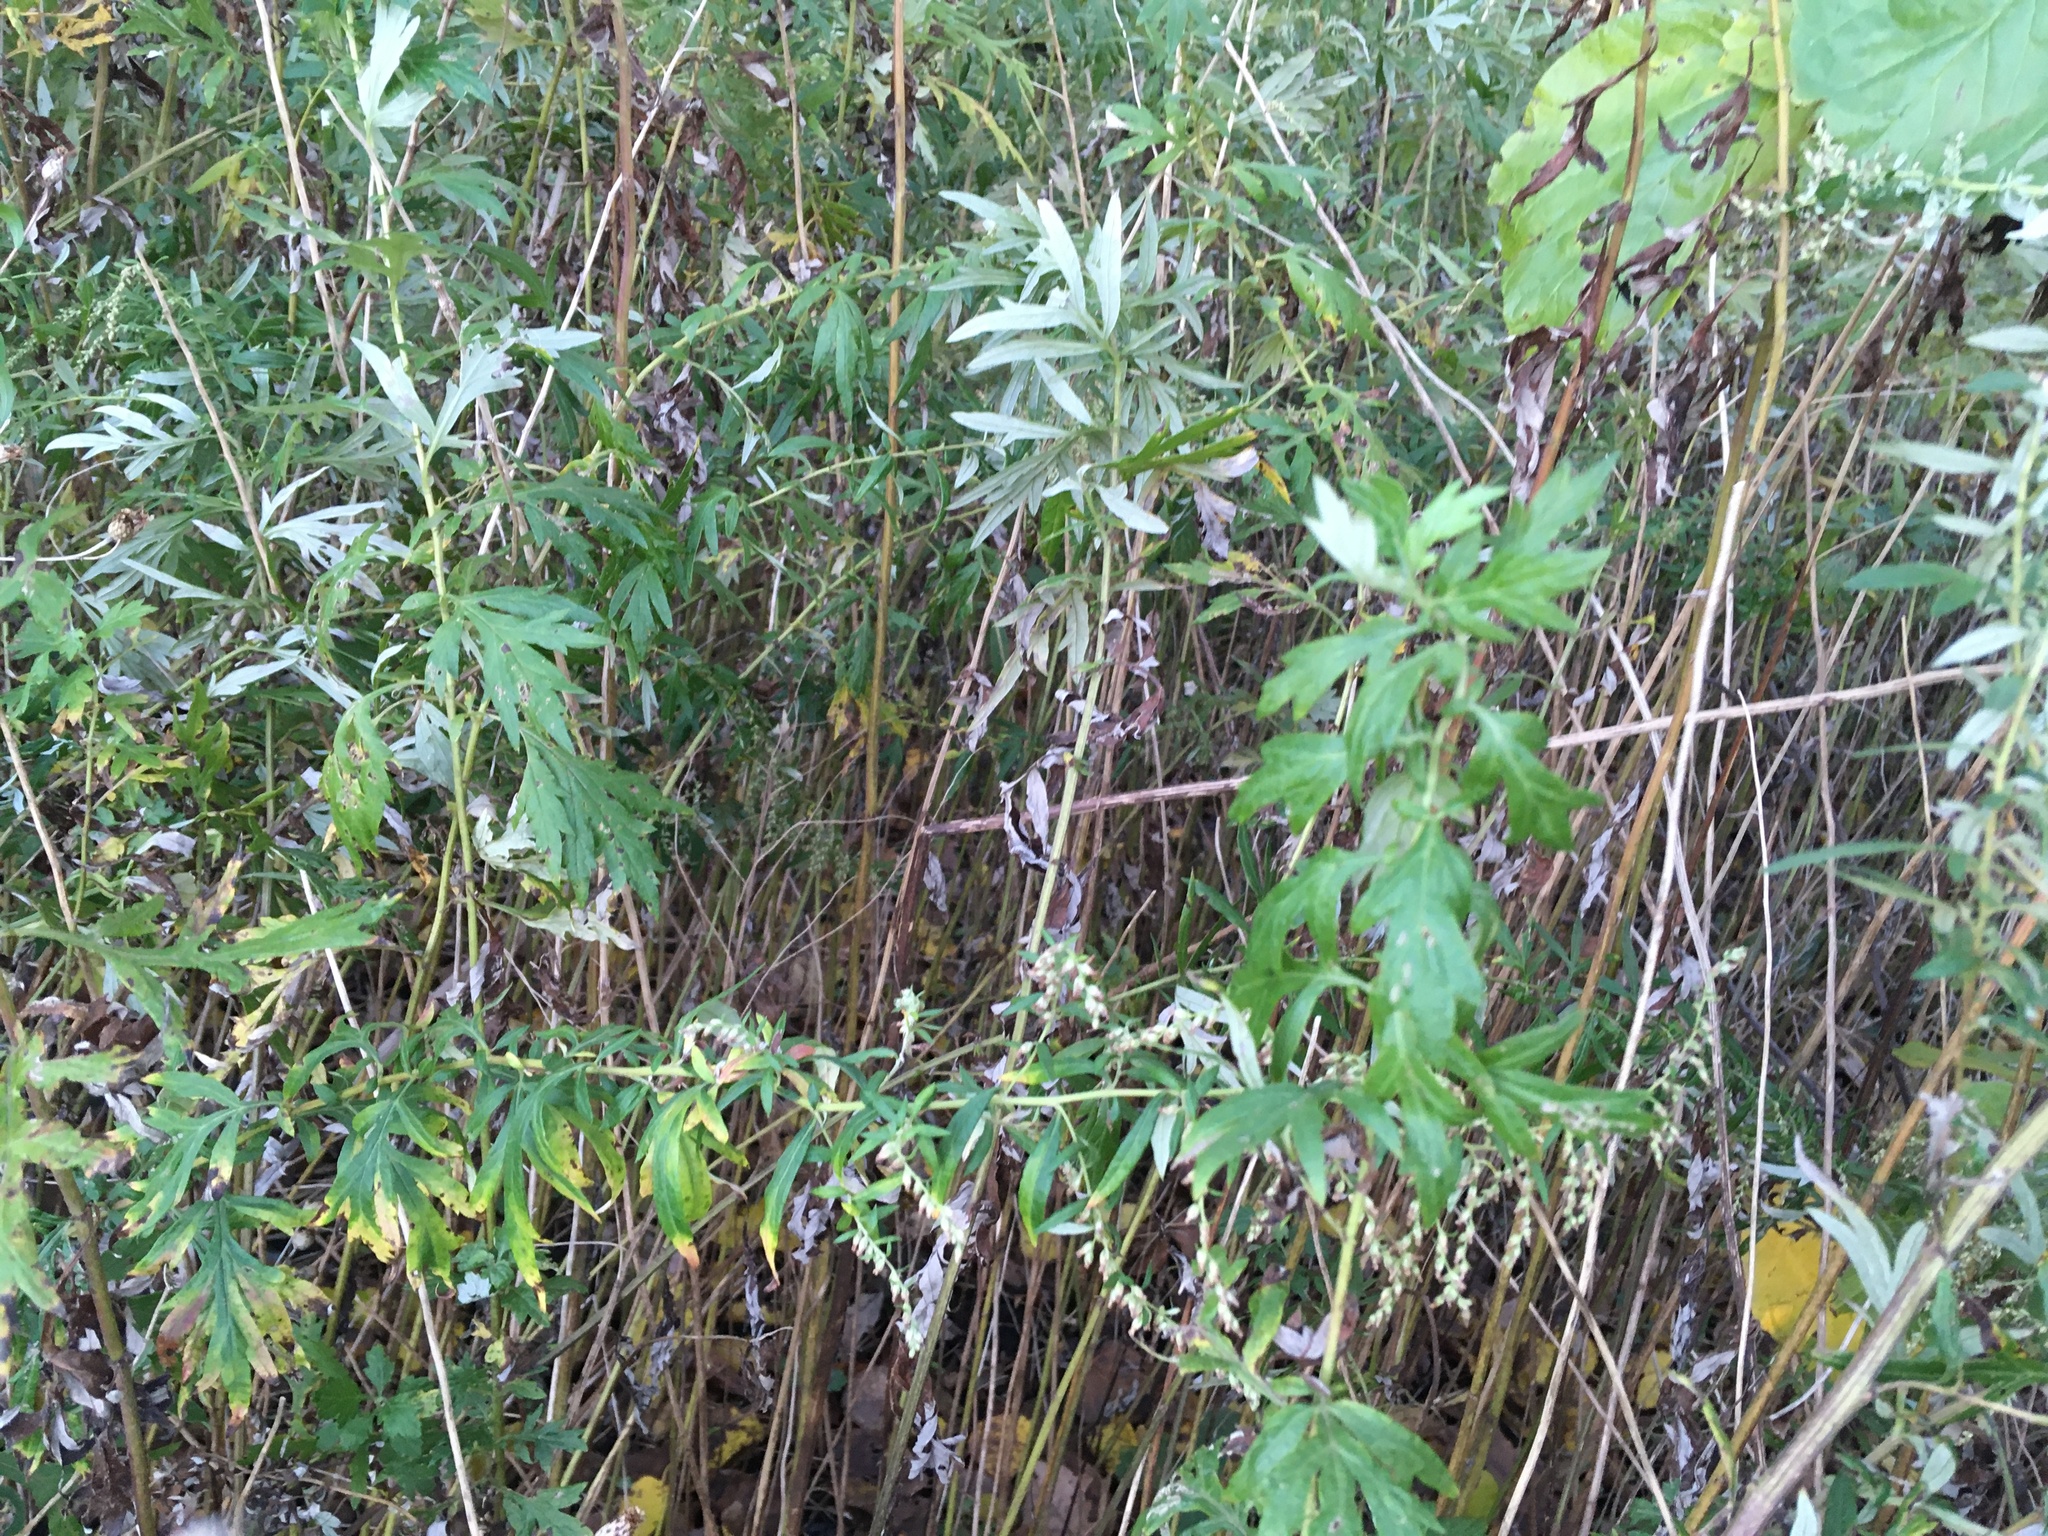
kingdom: Plantae
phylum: Tracheophyta
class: Magnoliopsida
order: Asterales
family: Asteraceae
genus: Artemisia
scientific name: Artemisia vulgaris
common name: Mugwort
